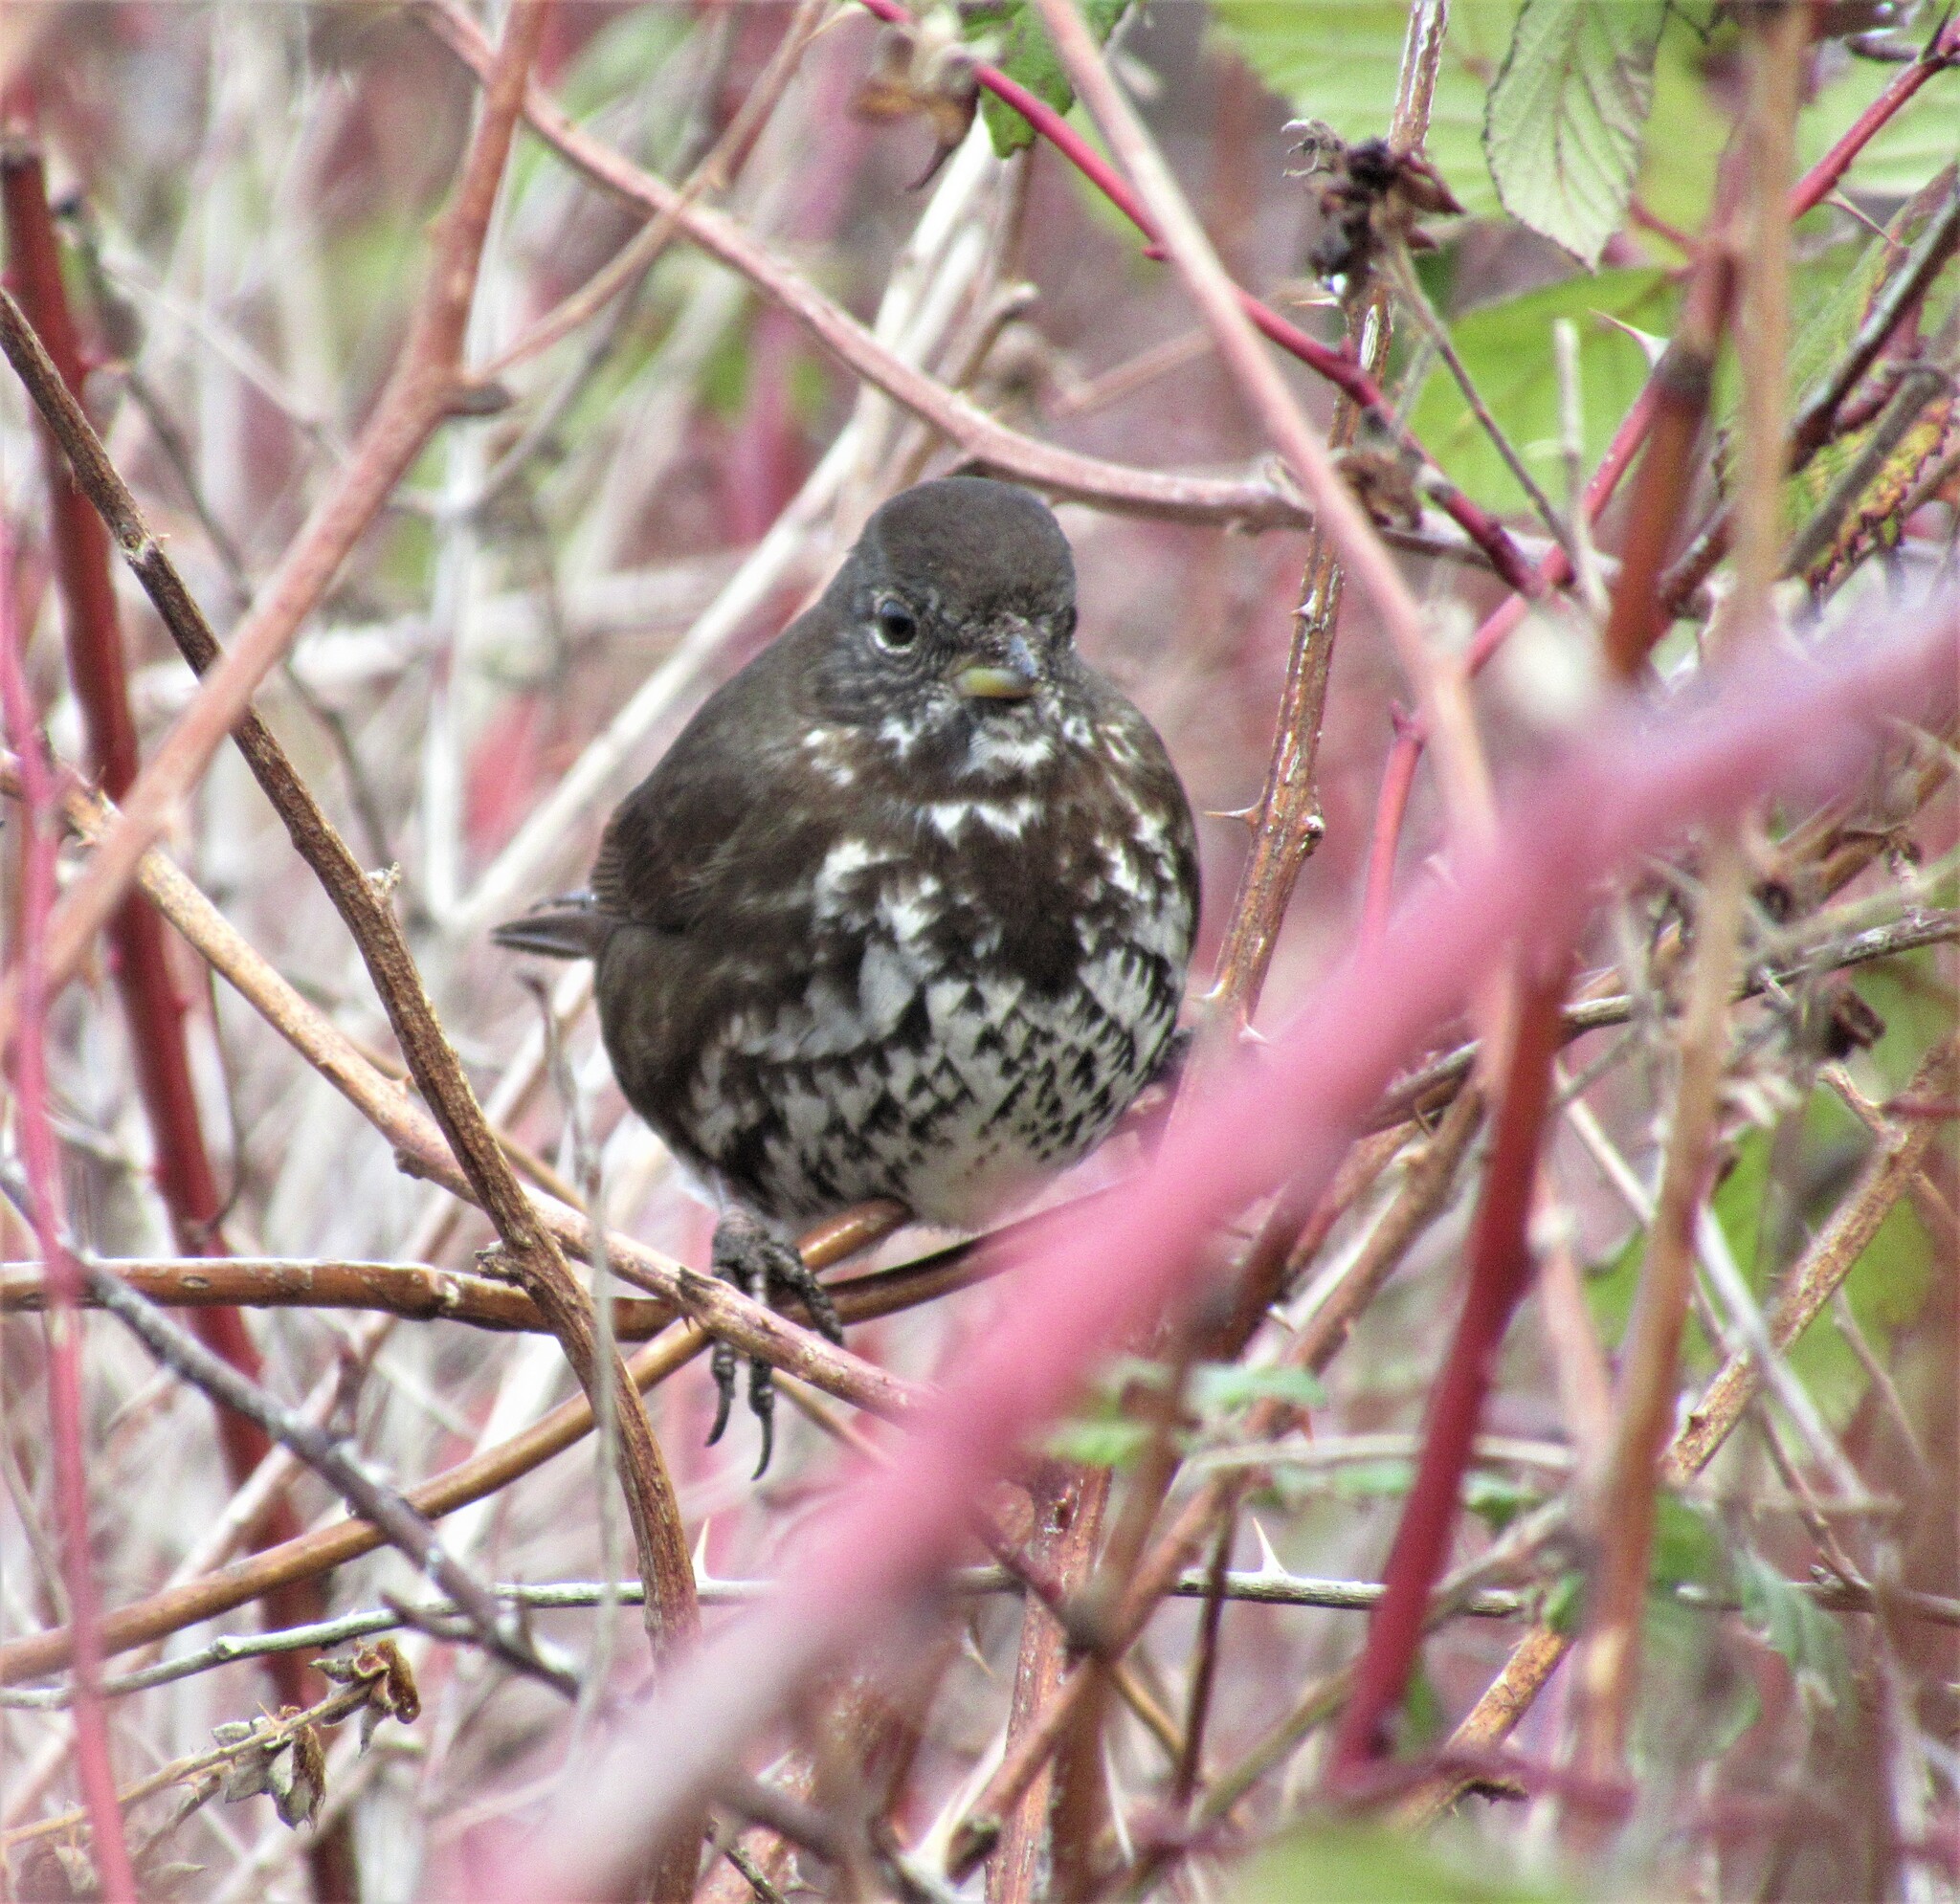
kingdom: Animalia
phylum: Chordata
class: Aves
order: Passeriformes
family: Passerellidae
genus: Passerella
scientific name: Passerella iliaca
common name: Fox sparrow
